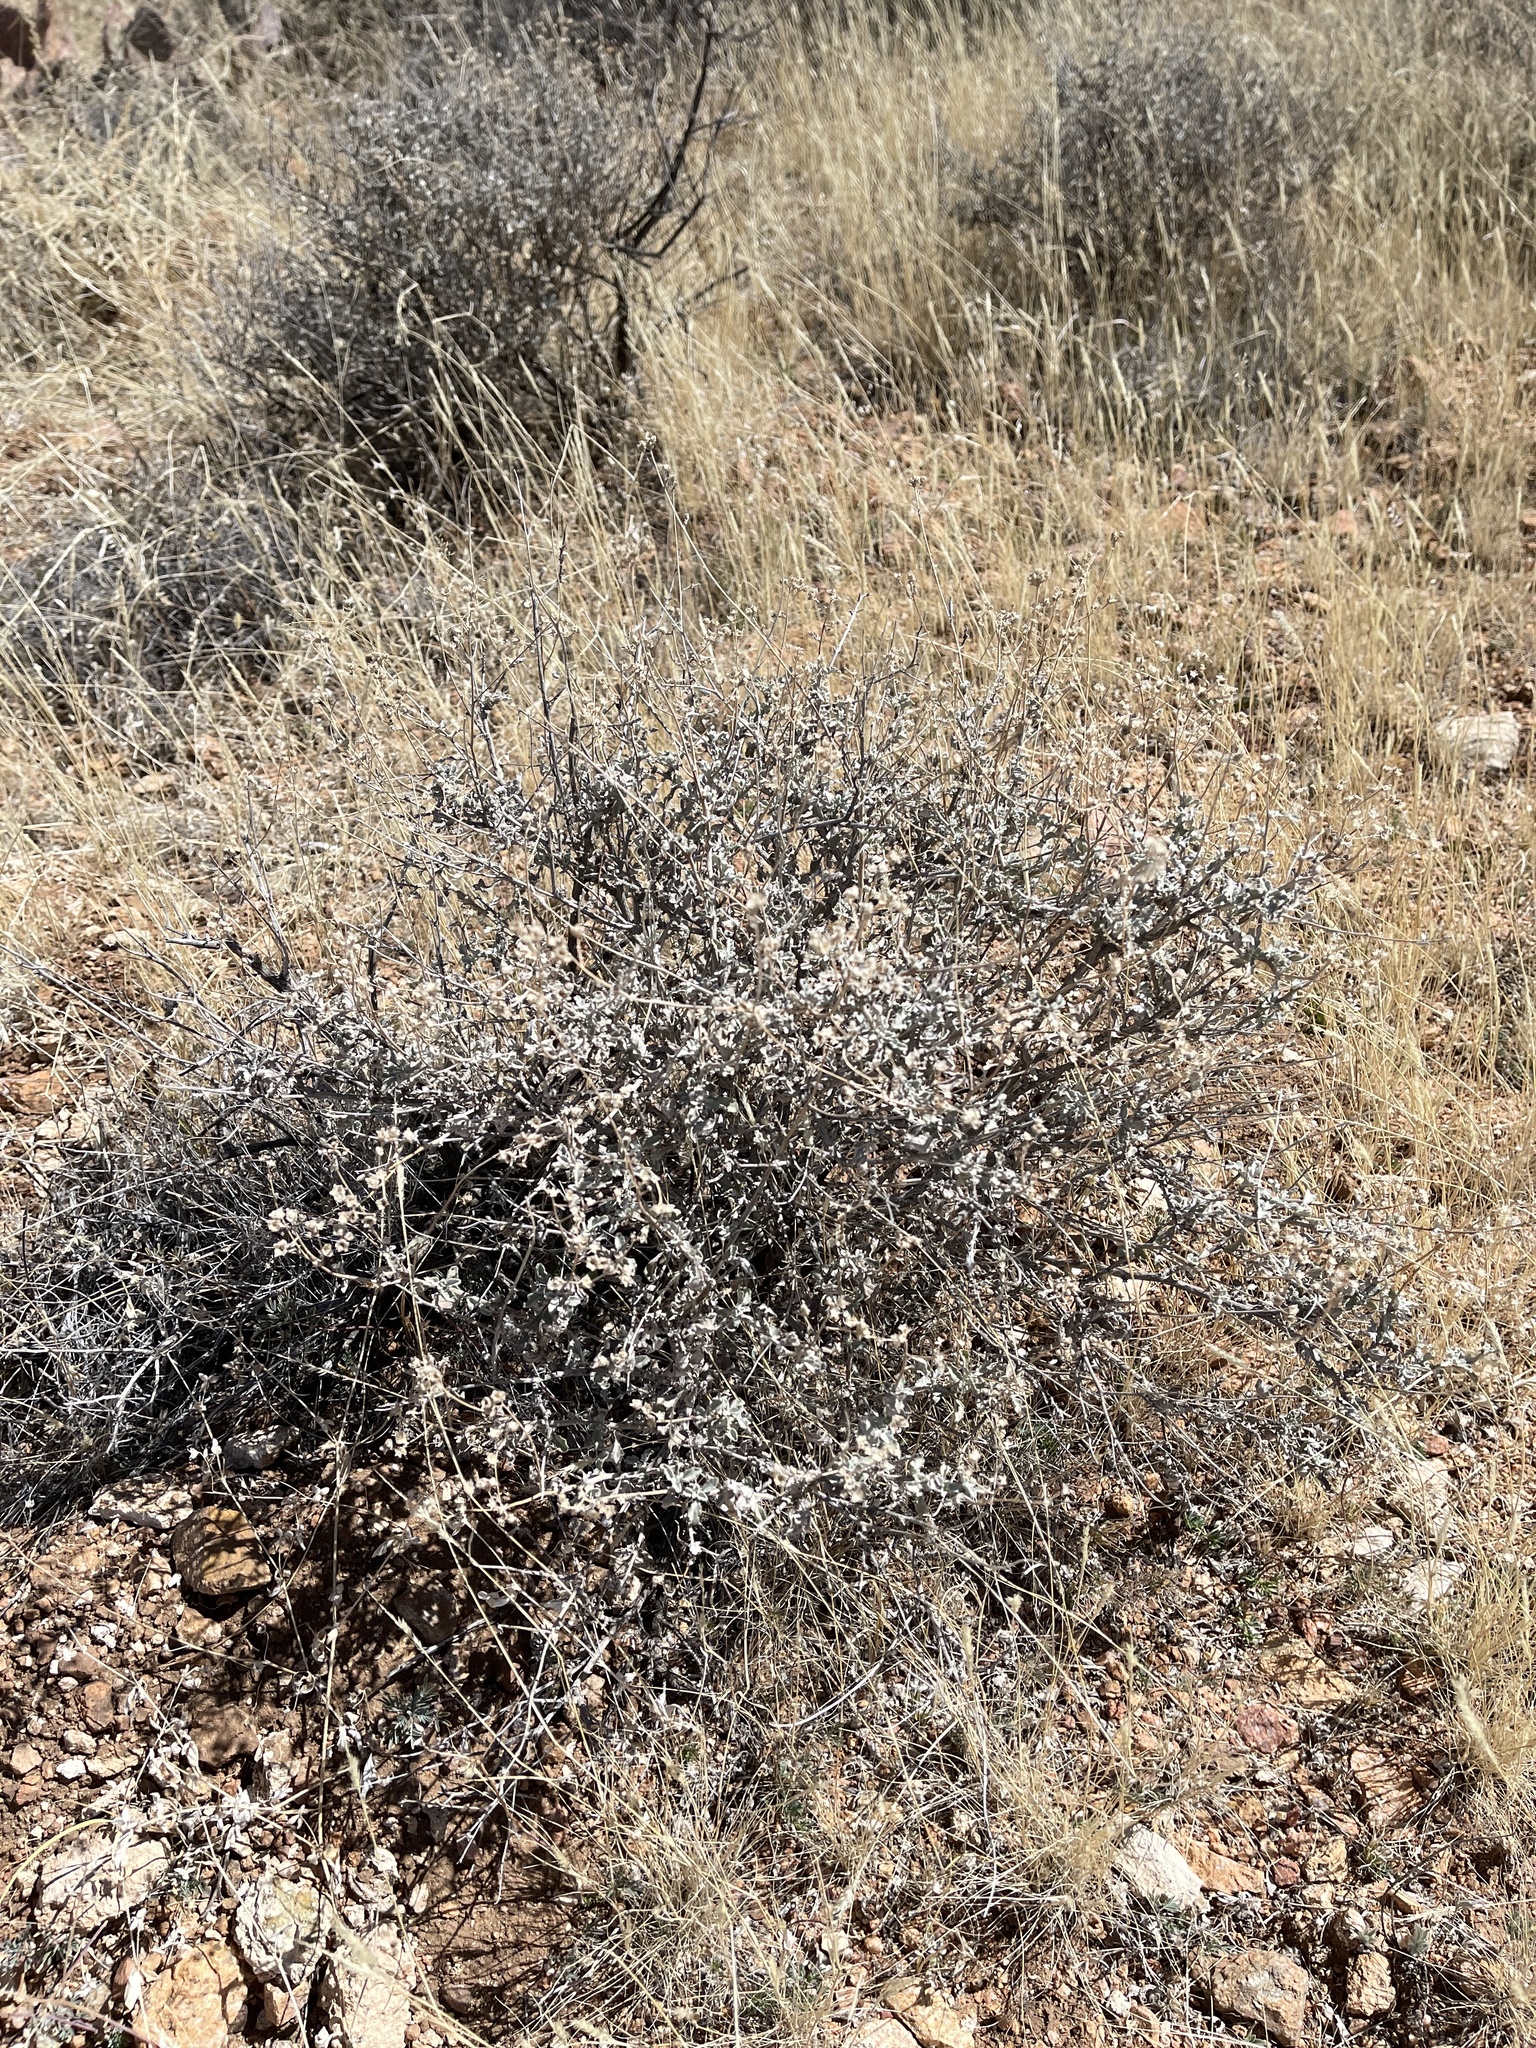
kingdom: Plantae
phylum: Tracheophyta
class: Magnoliopsida
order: Asterales
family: Asteraceae
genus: Parthenium
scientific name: Parthenium incanum
